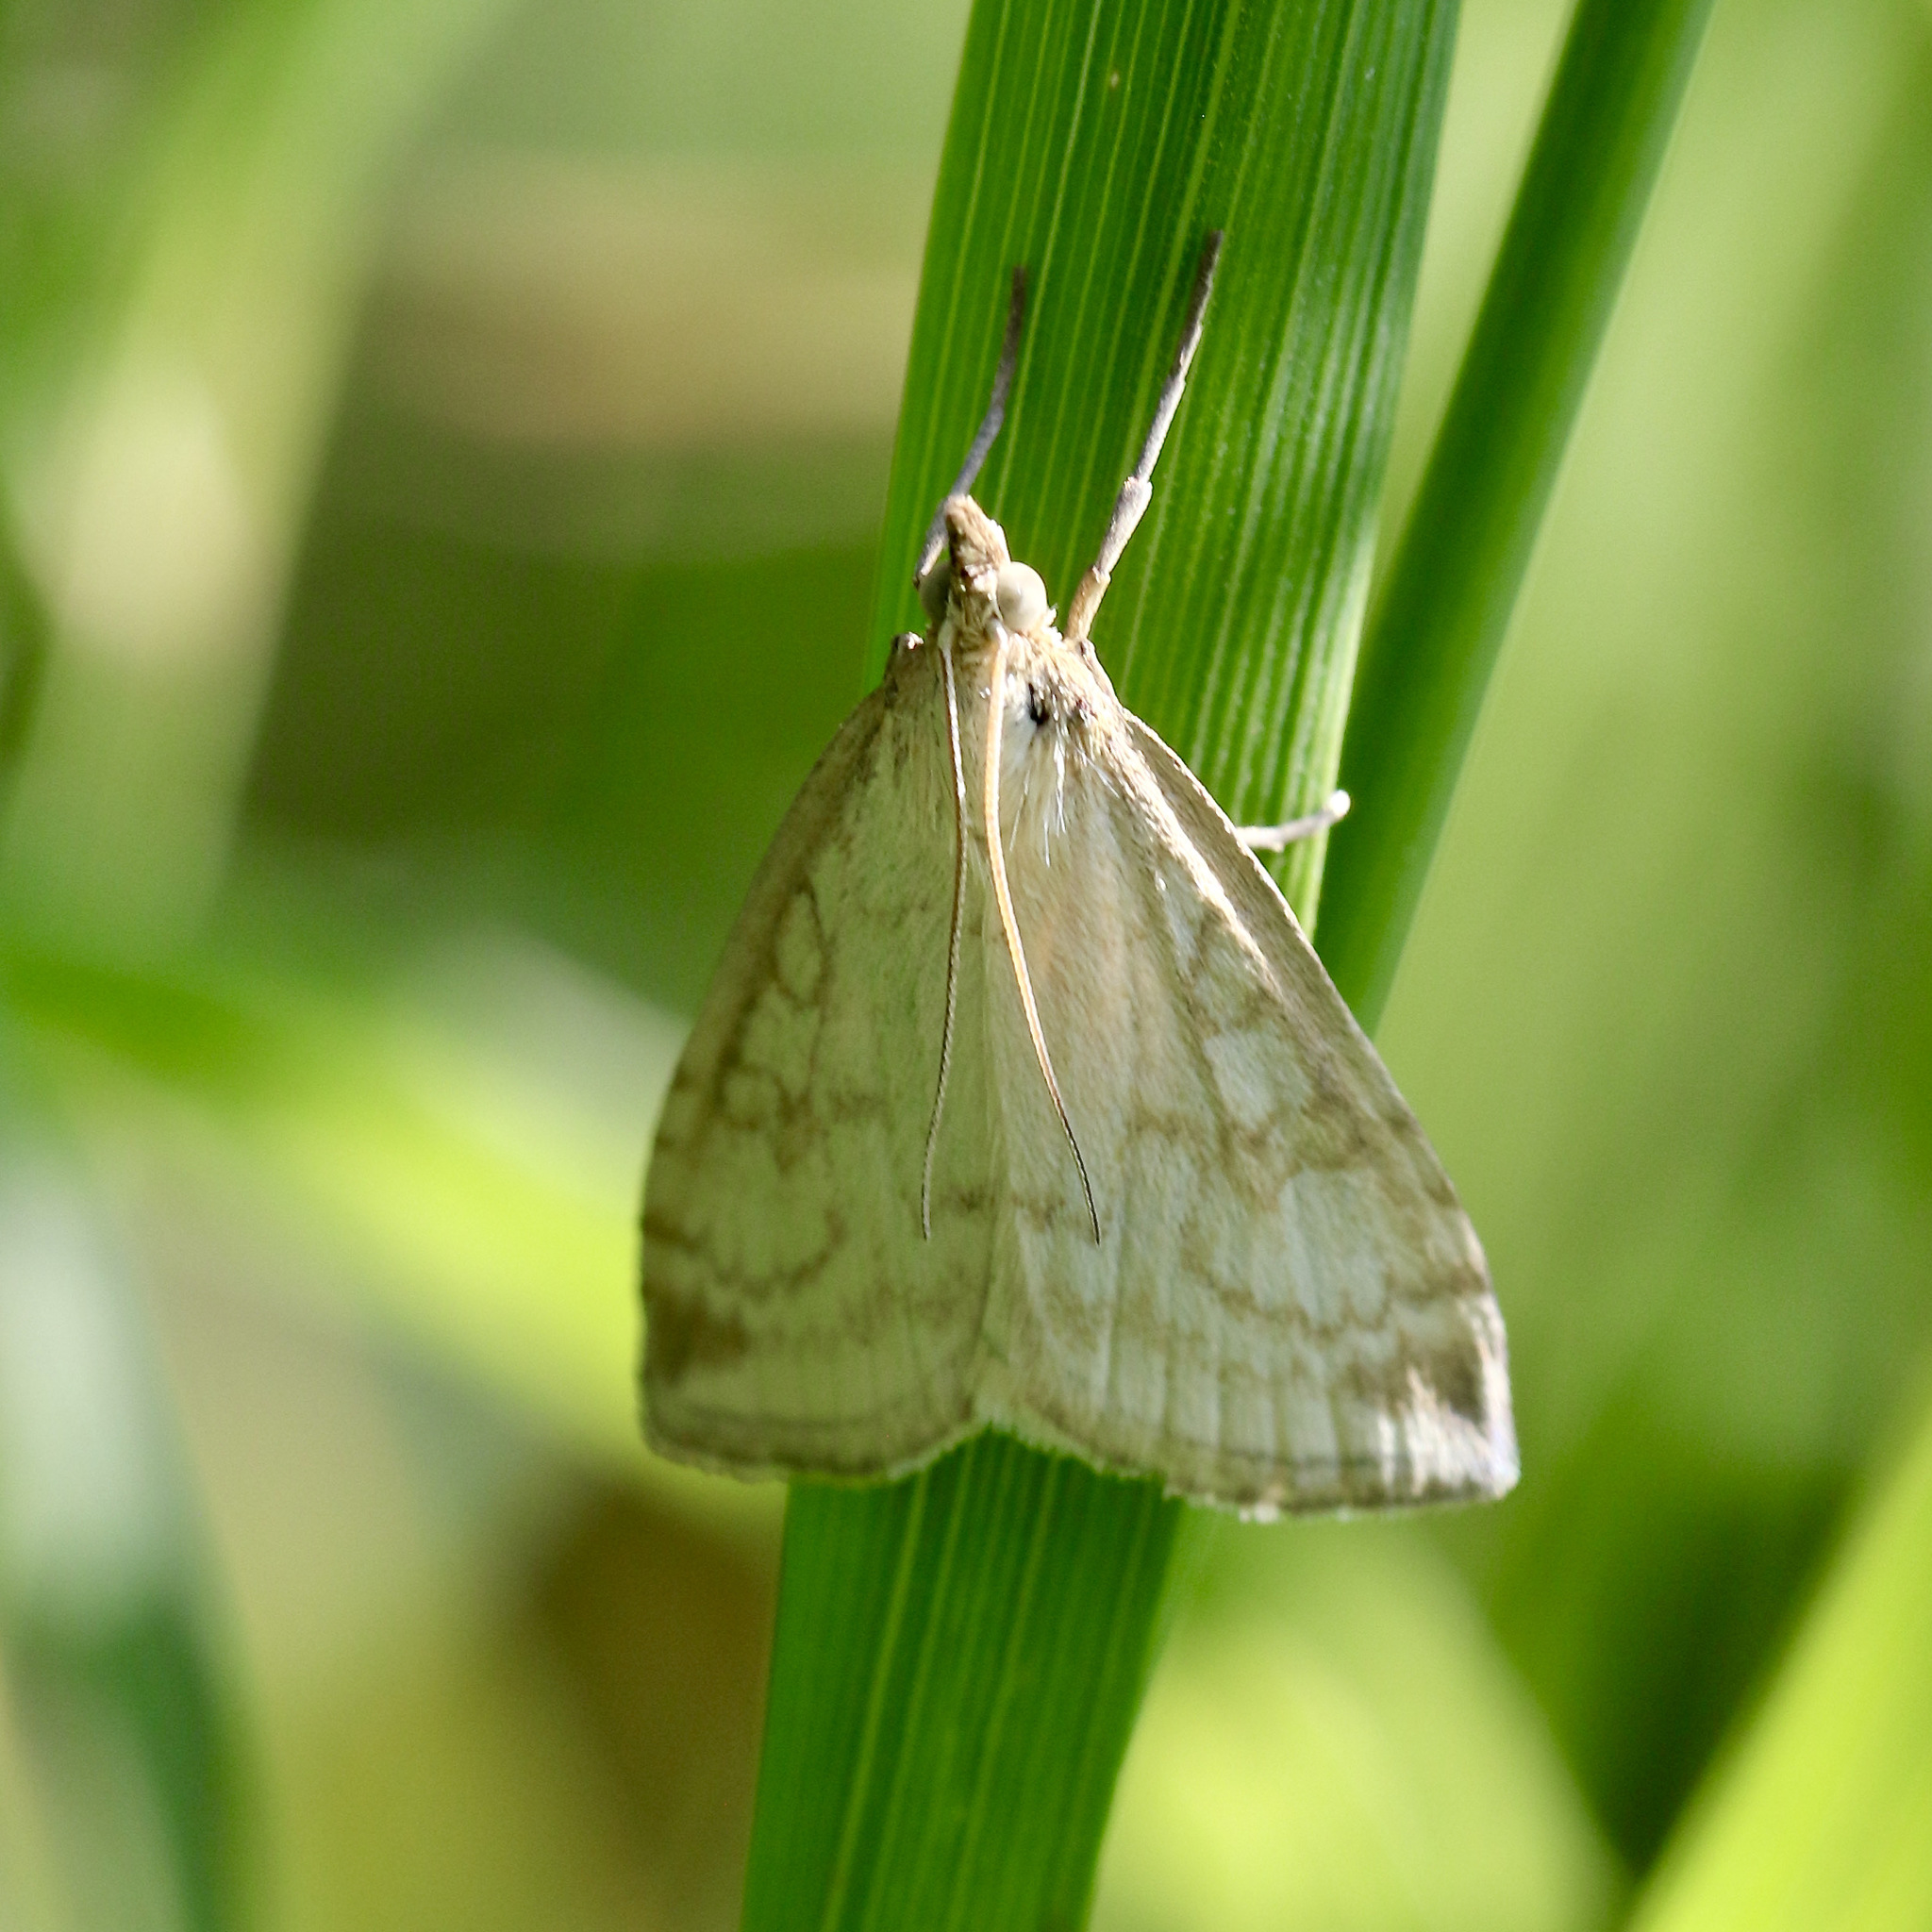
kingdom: Animalia
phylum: Arthropoda
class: Insecta
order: Lepidoptera
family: Crambidae
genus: Udea
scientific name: Udea lutealis
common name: Pale straw pearl
